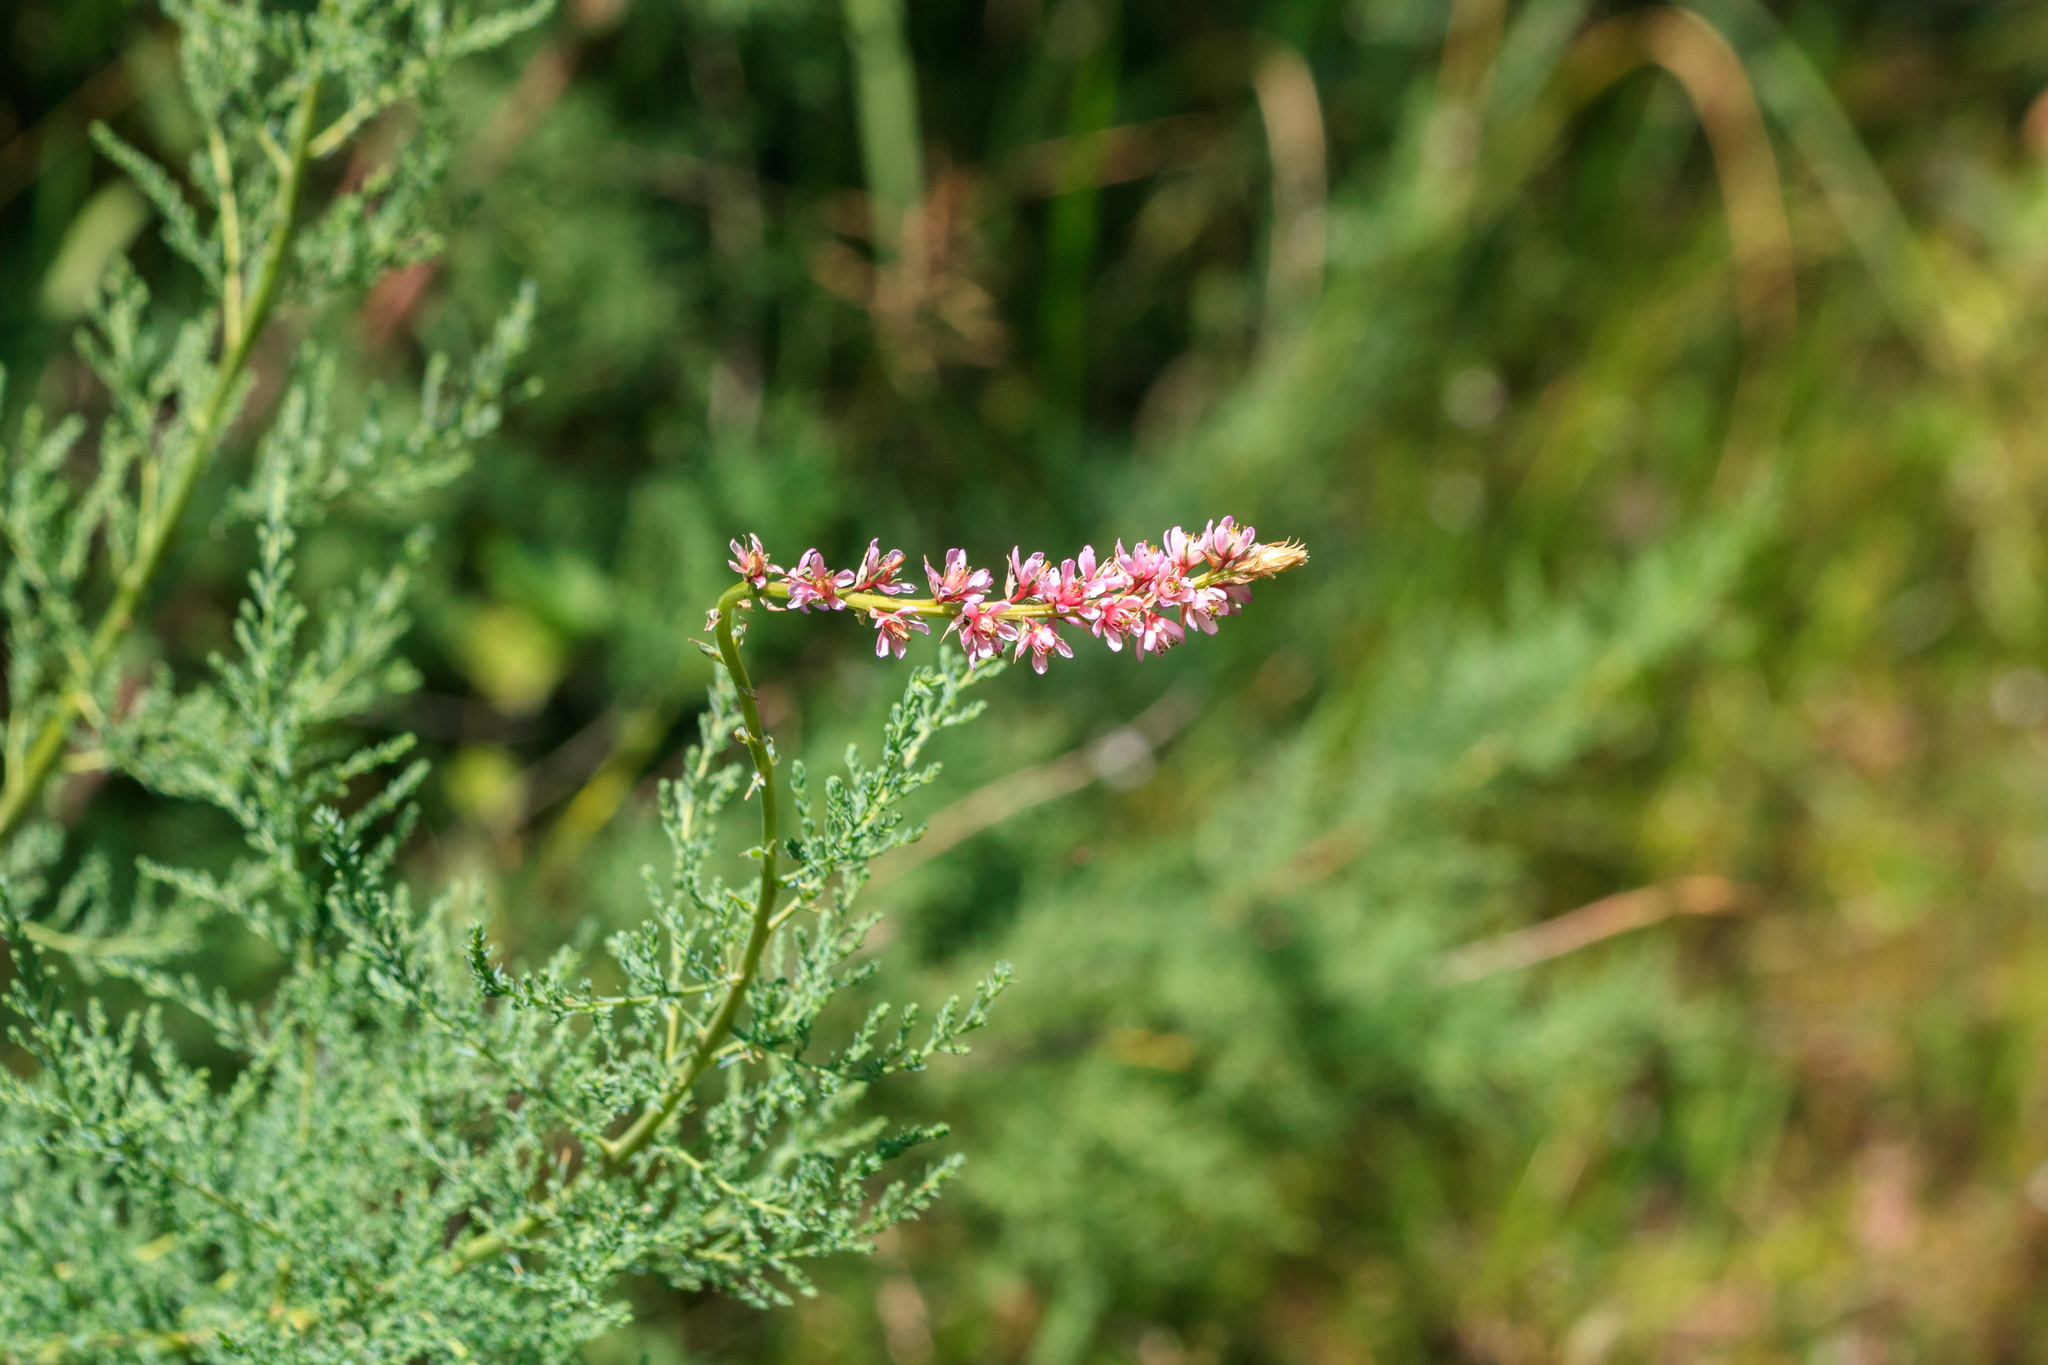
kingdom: Plantae
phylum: Tracheophyta
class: Magnoliopsida
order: Caryophyllales
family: Tamaricaceae
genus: Myricaria
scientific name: Myricaria squamosa
